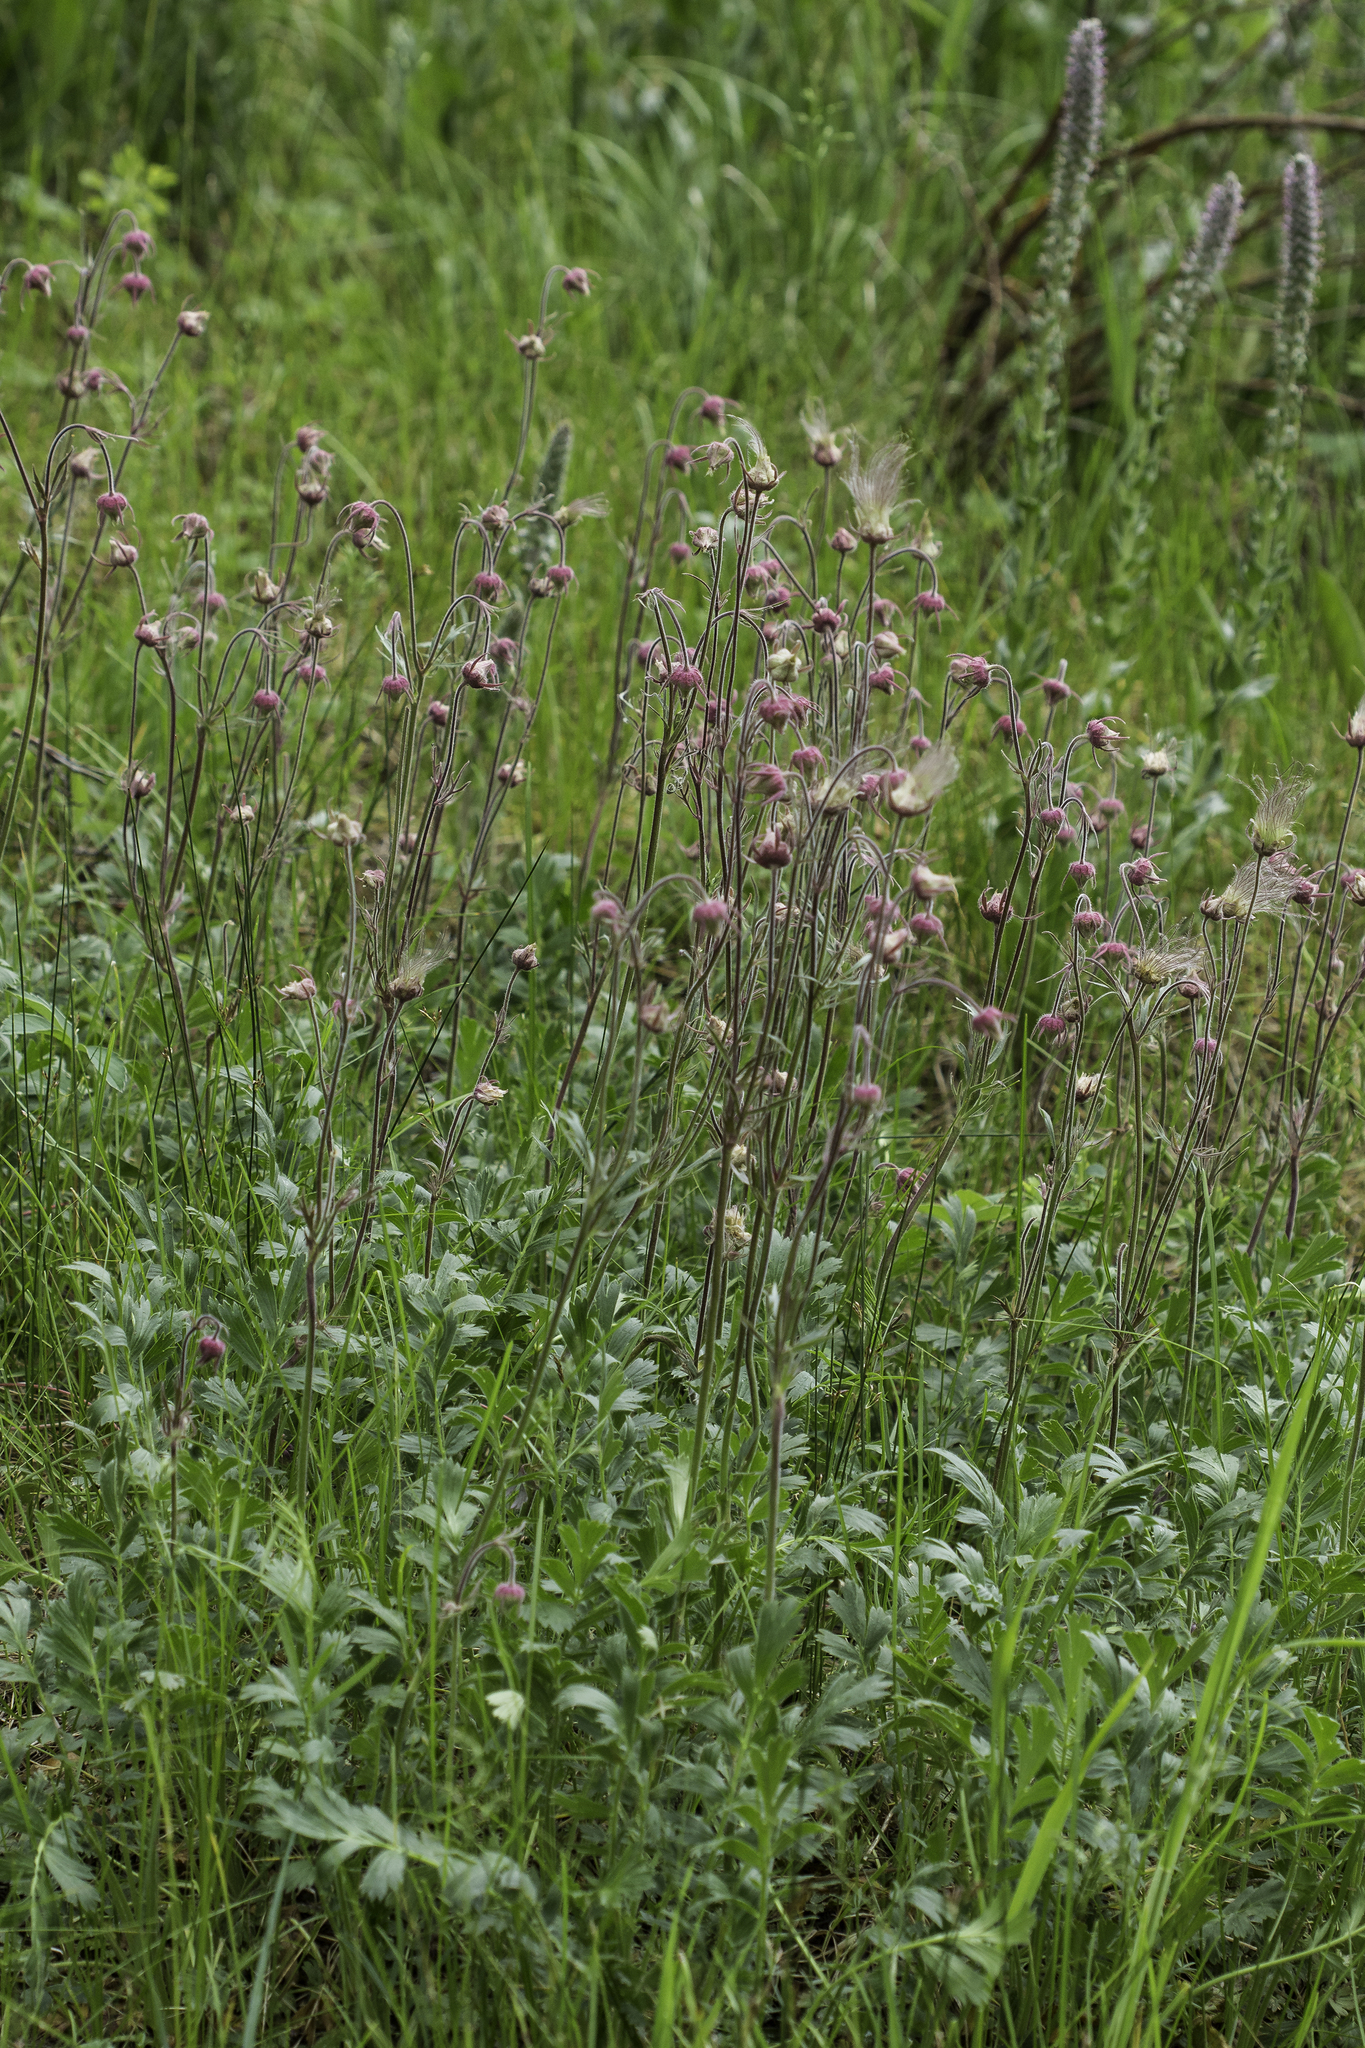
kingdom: Plantae
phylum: Tracheophyta
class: Magnoliopsida
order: Rosales
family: Rosaceae
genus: Geum
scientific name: Geum triflorum
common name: Old man's whiskers
